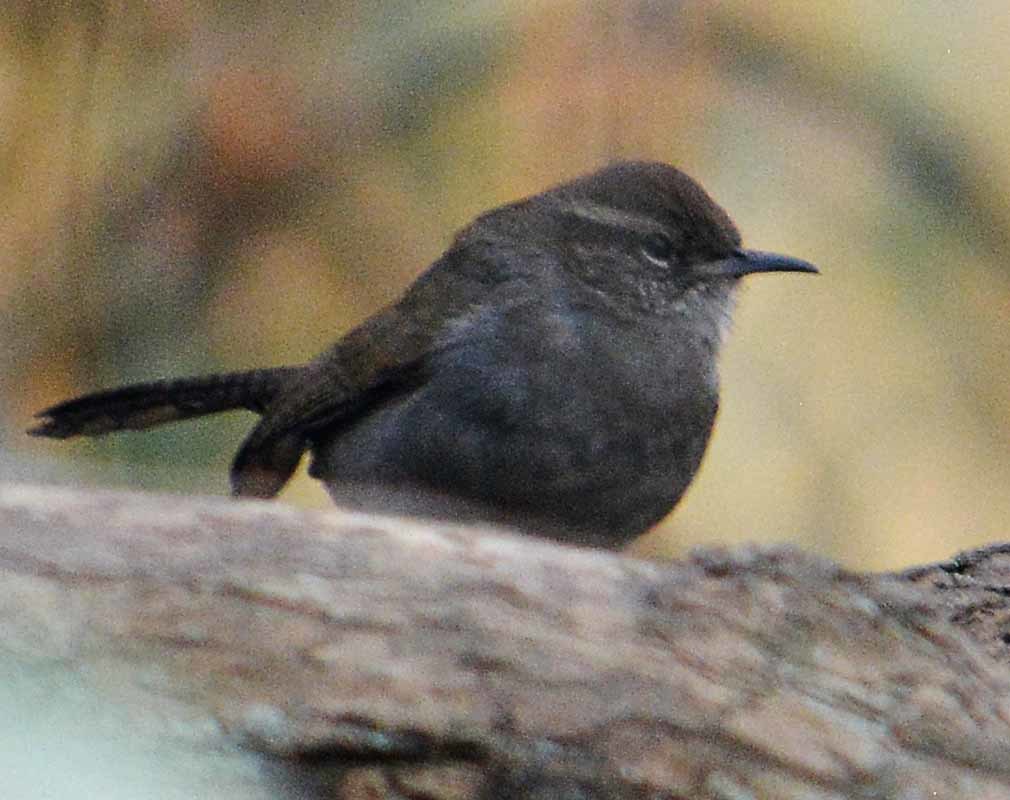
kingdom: Animalia
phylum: Chordata
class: Aves
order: Passeriformes
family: Troglodytidae
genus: Thryomanes
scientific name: Thryomanes bewickii
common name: Bewick's wren
